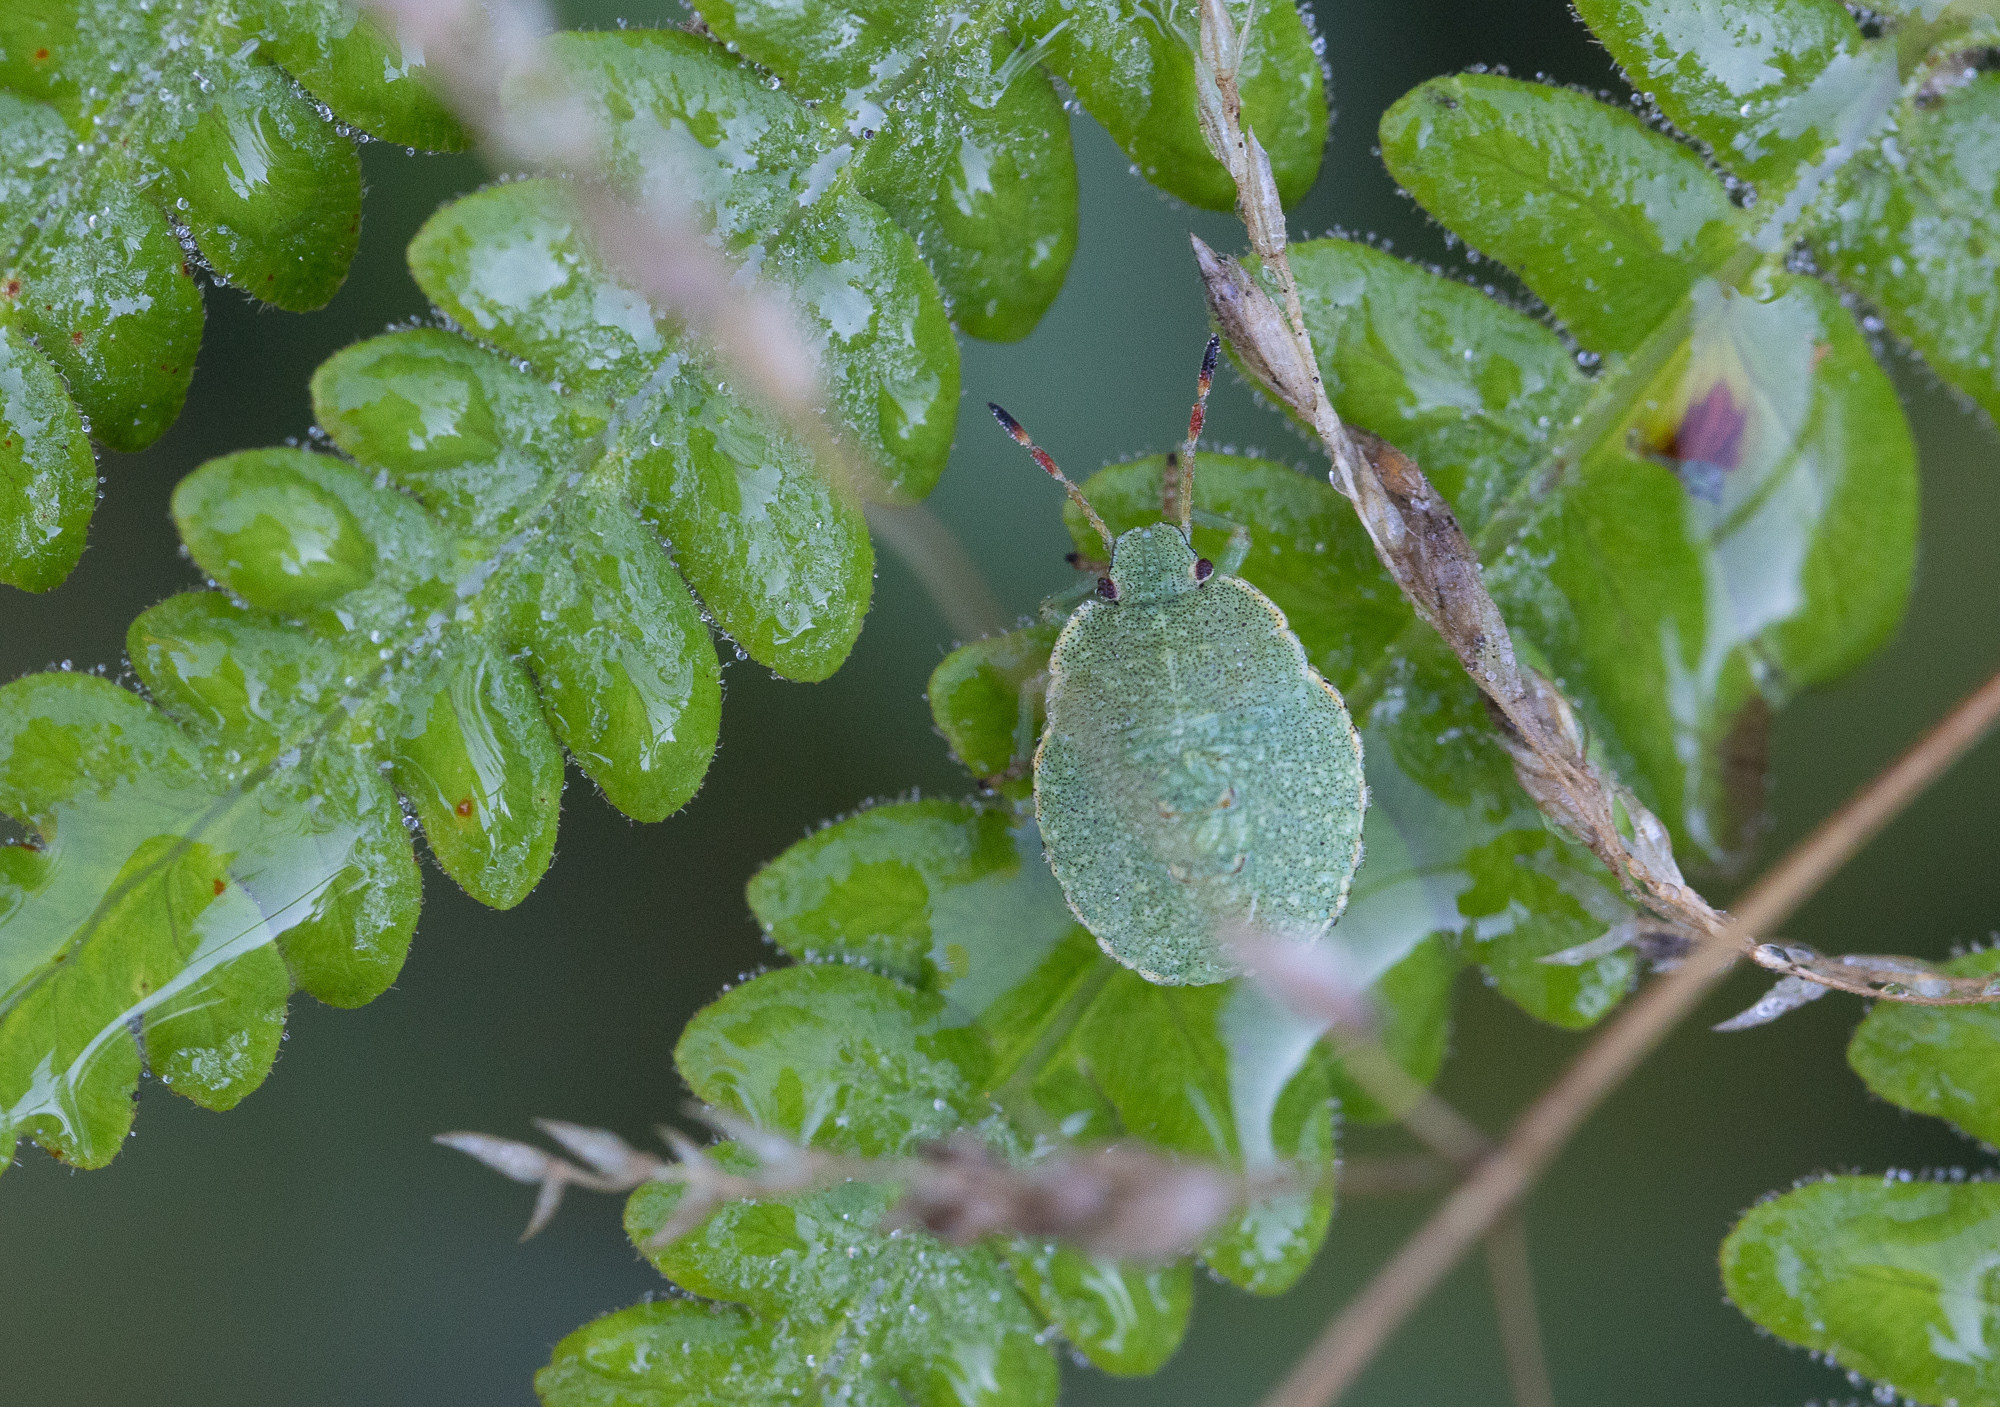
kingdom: Animalia
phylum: Arthropoda
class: Insecta
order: Hemiptera
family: Pentatomidae
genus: Palomena
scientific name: Palomena prasina
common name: Green shieldbug
